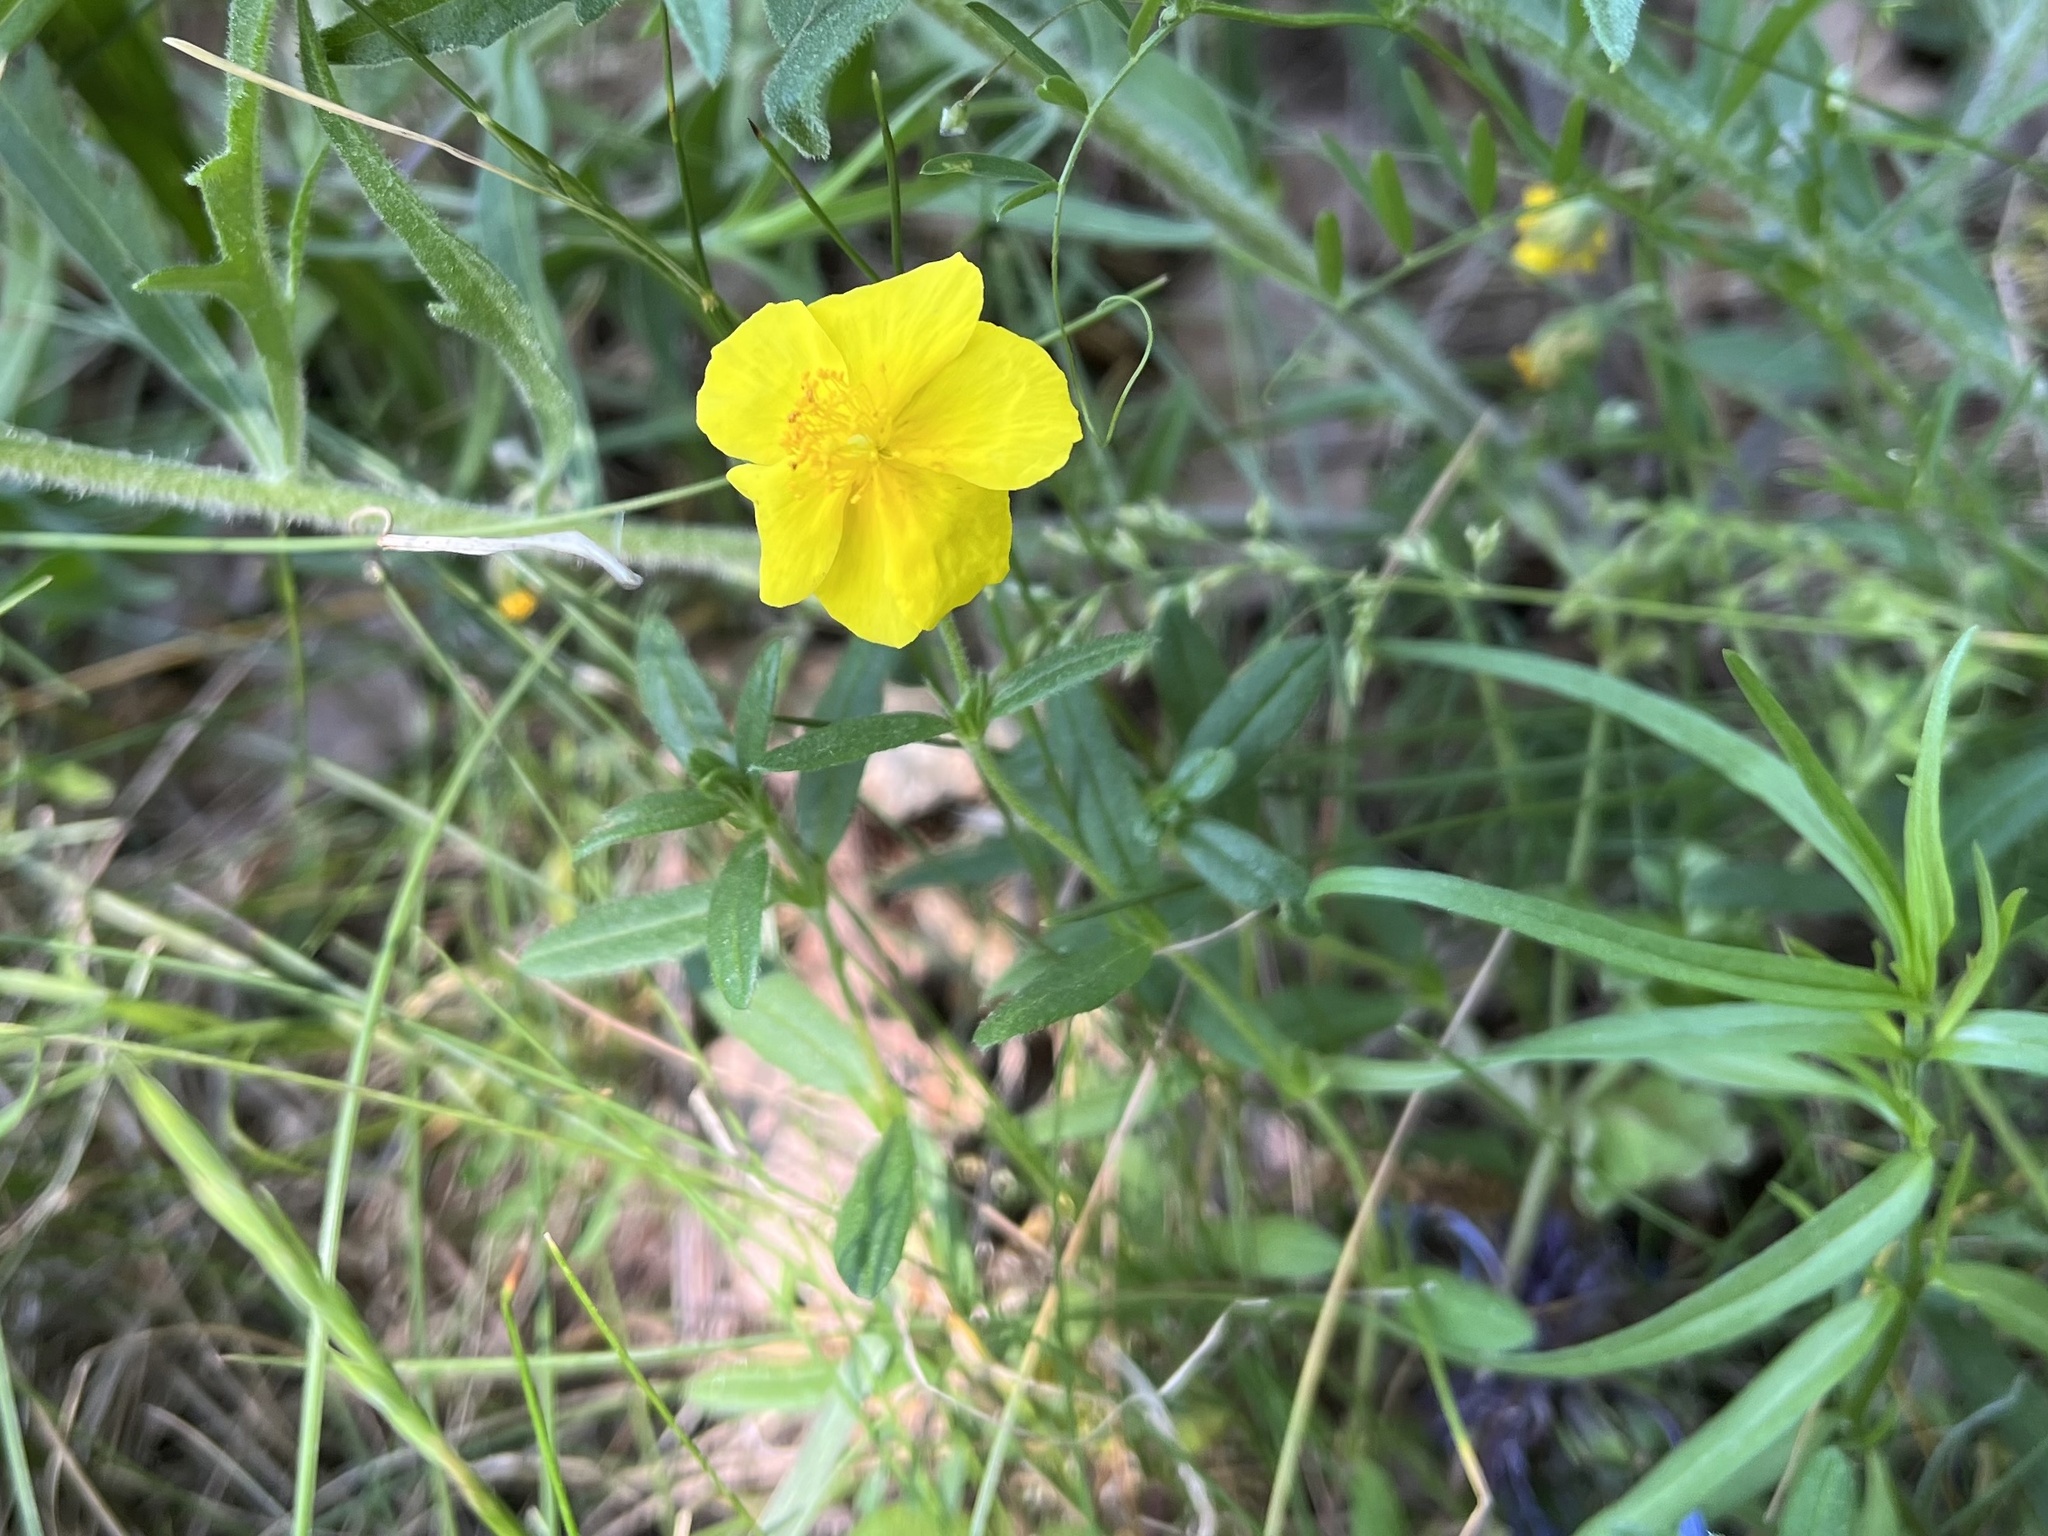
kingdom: Plantae
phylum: Tracheophyta
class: Magnoliopsida
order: Malvales
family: Cistaceae
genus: Helianthemum
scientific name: Helianthemum nummularium
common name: Common rock-rose
